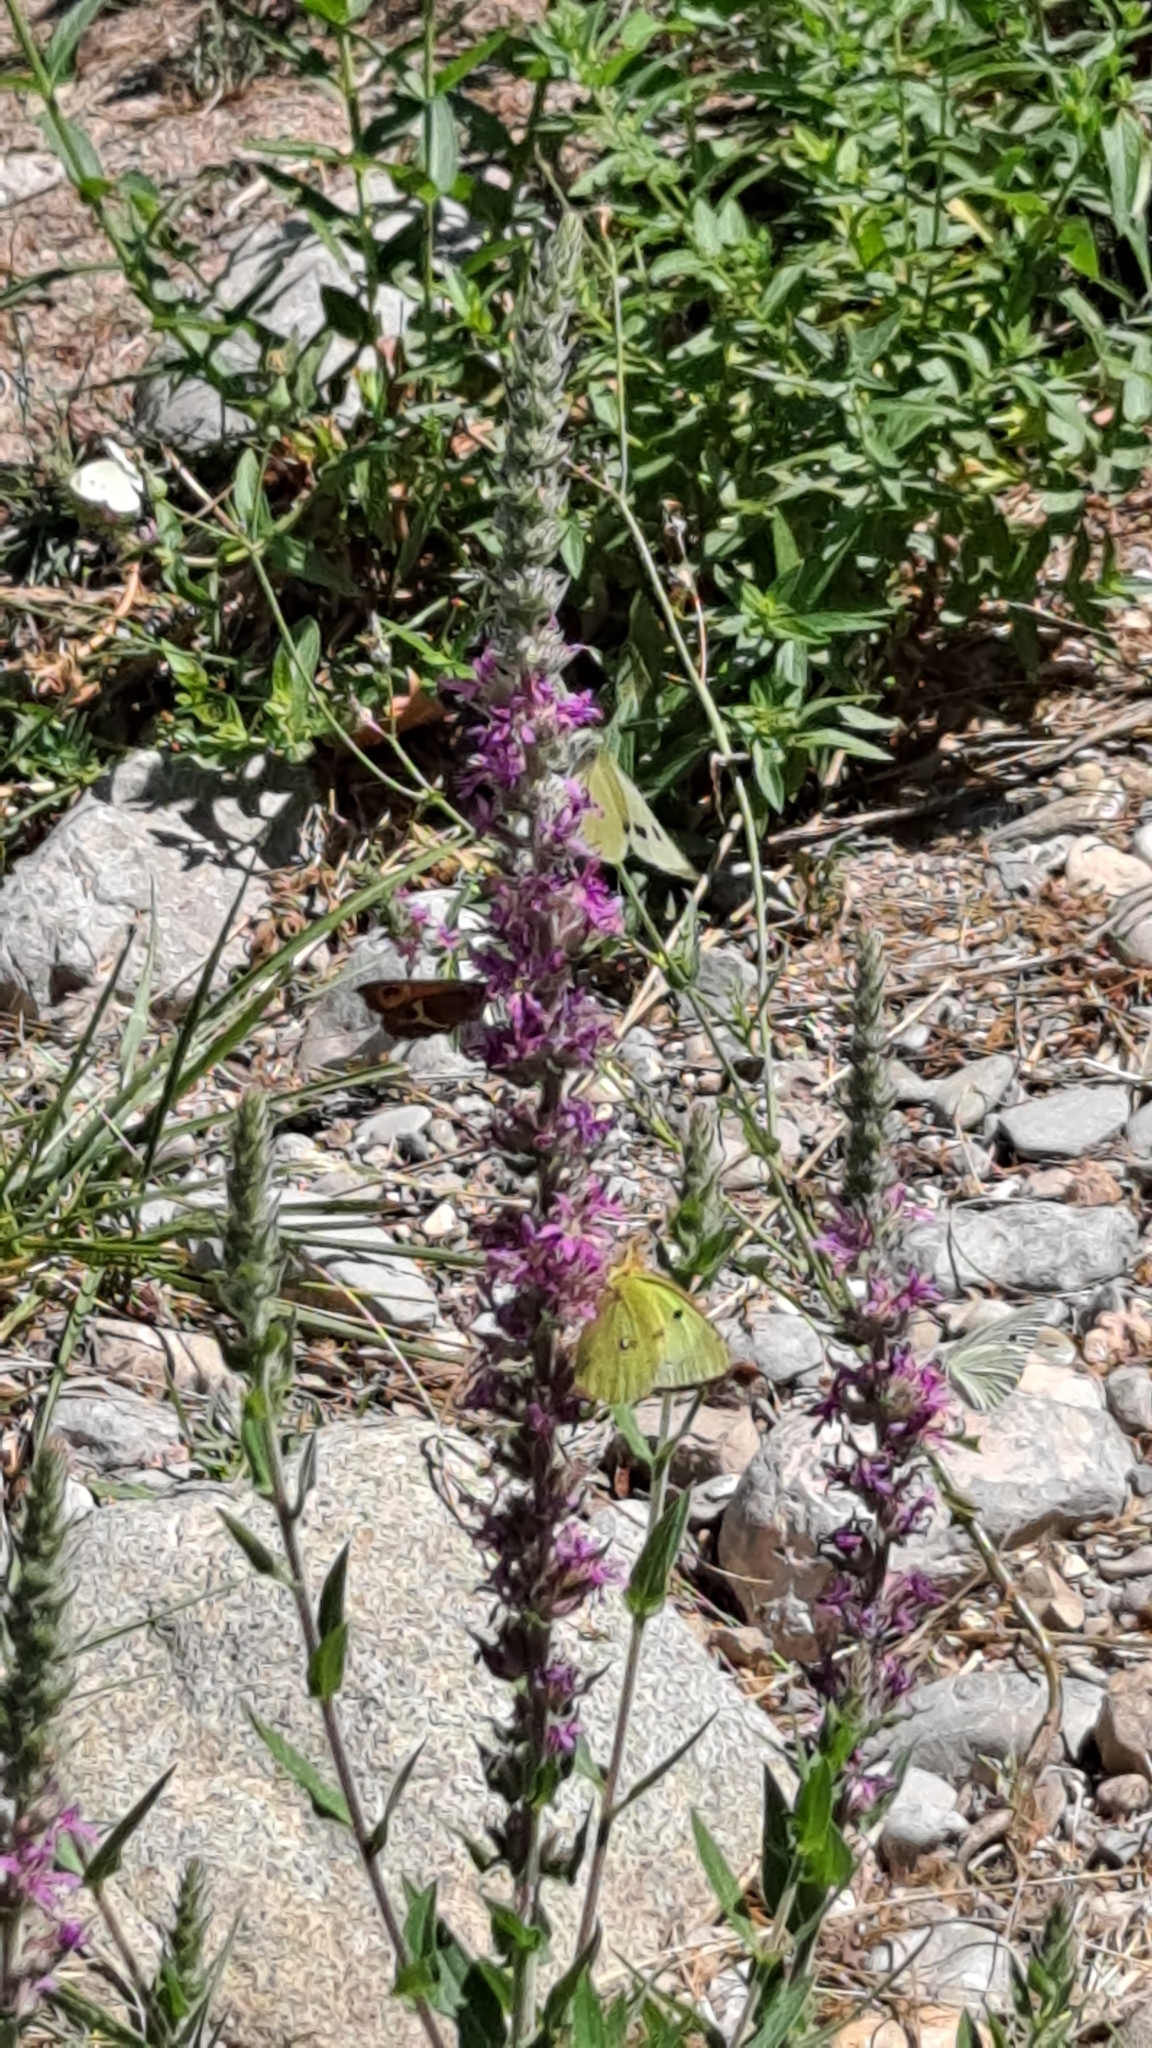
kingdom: Plantae
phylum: Tracheophyta
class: Magnoliopsida
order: Myrtales
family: Lythraceae
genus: Lythrum
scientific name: Lythrum salicaria
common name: Purple loosestrife
